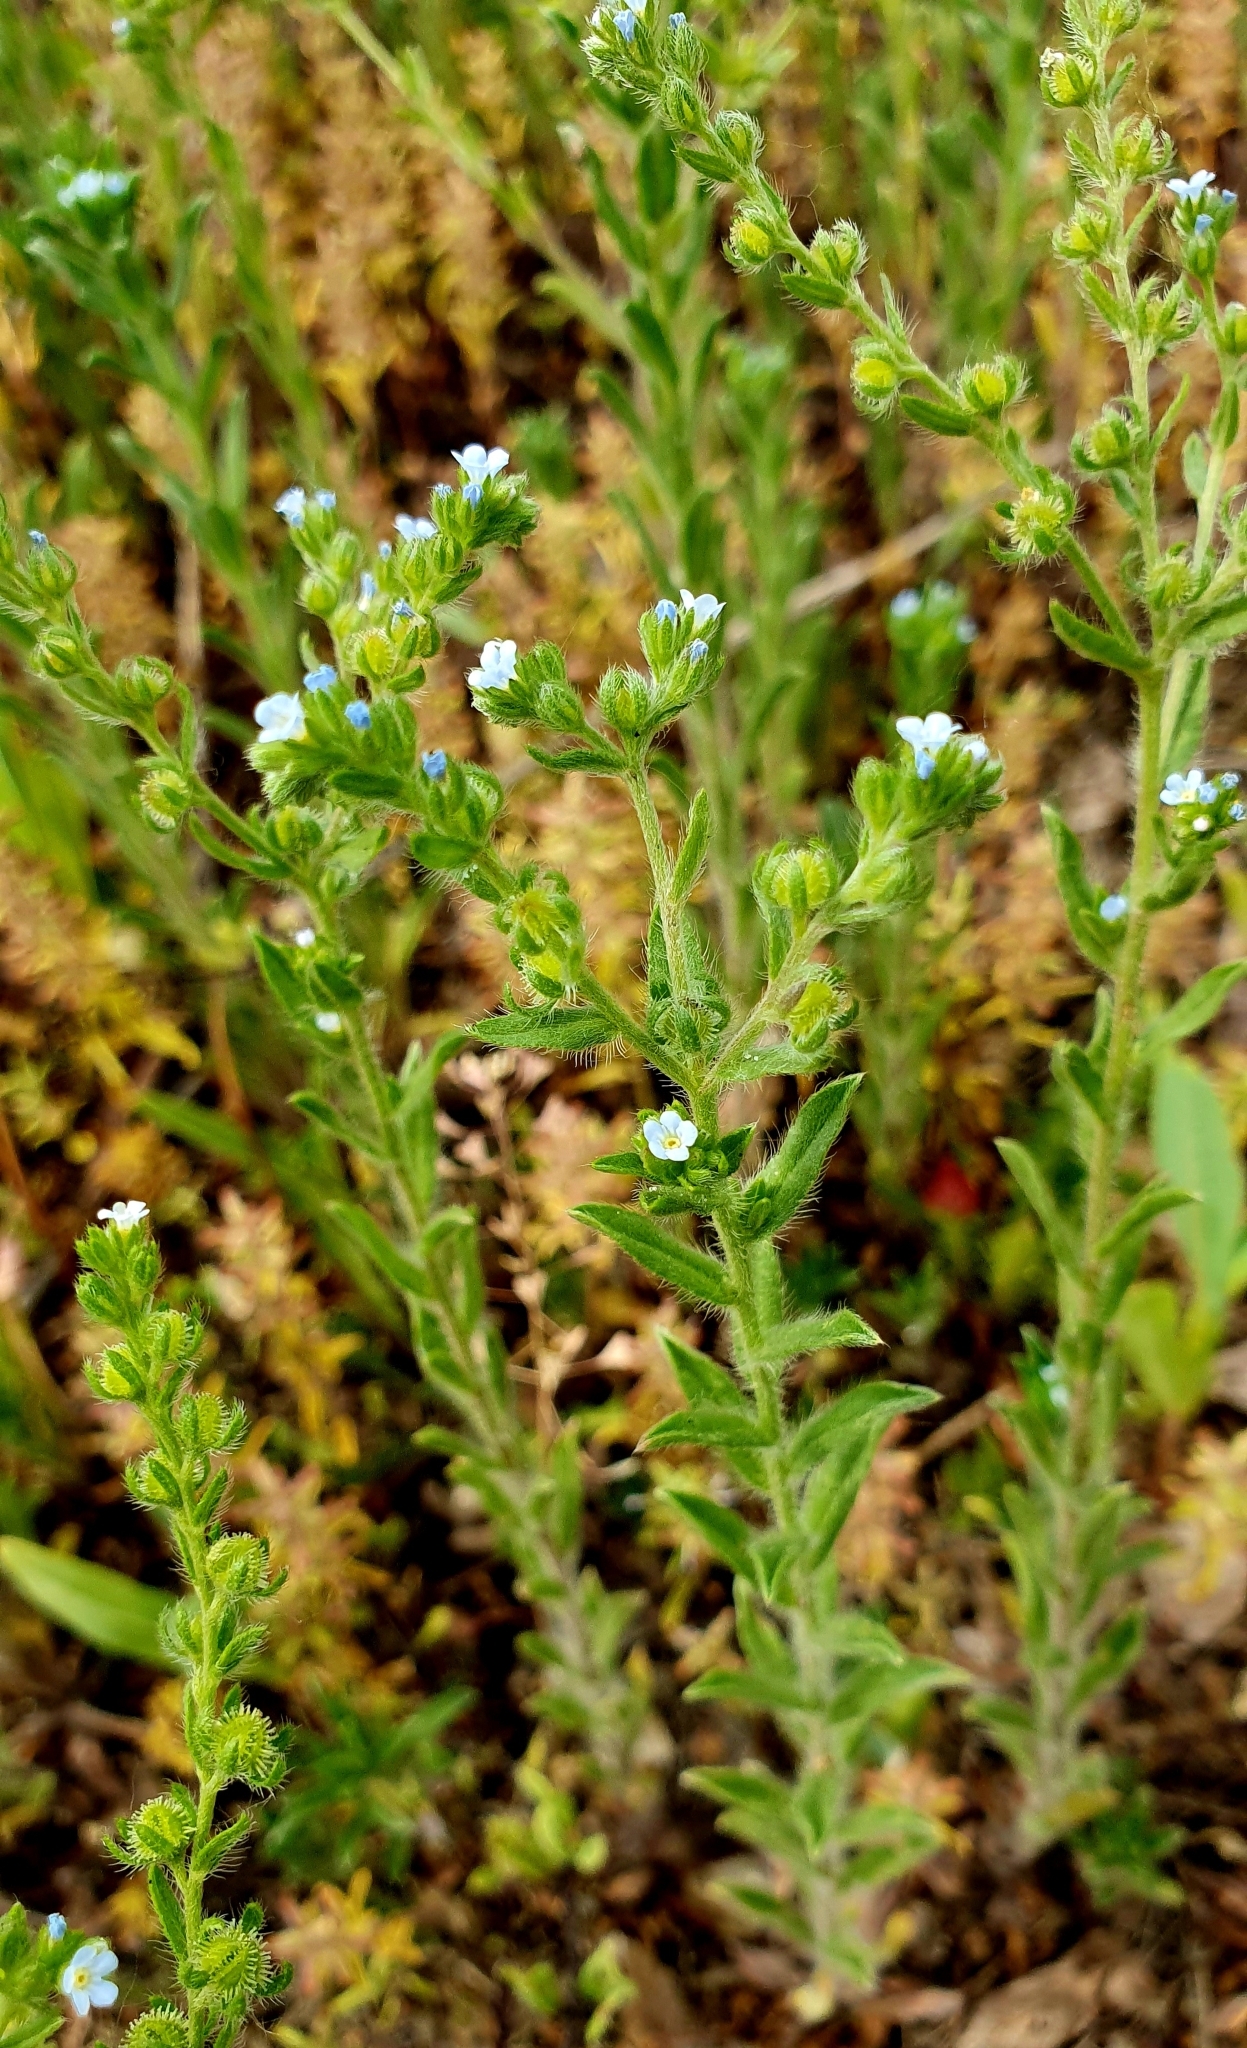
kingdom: Plantae
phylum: Tracheophyta
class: Magnoliopsida
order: Boraginales
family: Boraginaceae
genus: Lappula
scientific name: Lappula squarrosa
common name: European stickseed
